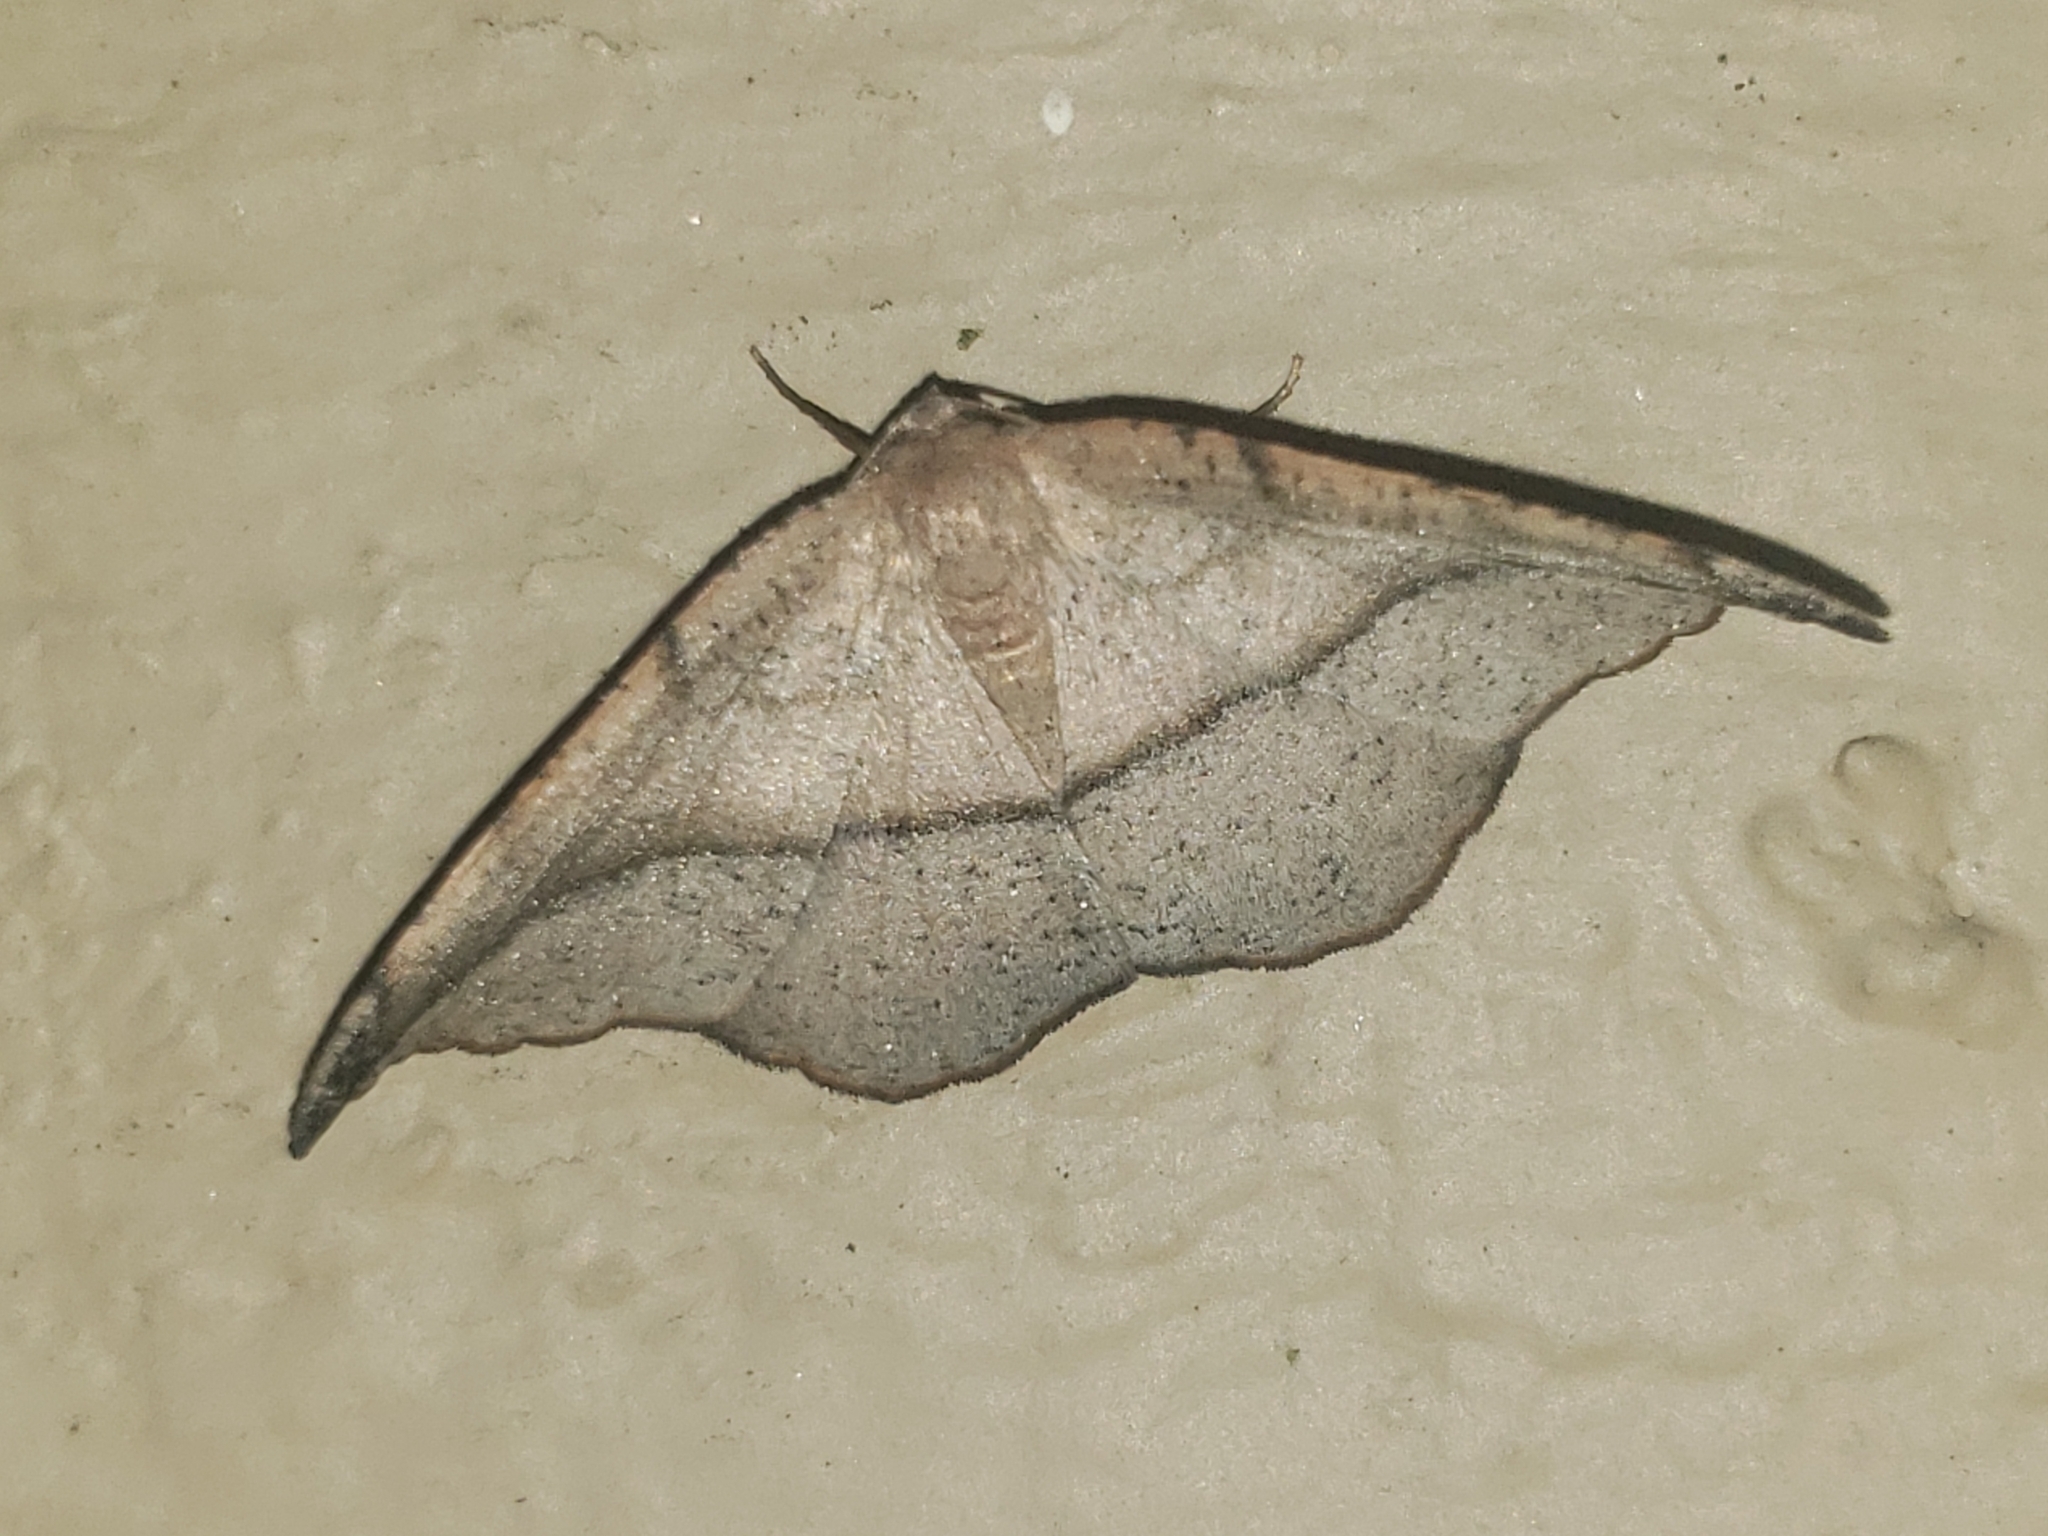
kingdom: Animalia
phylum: Arthropoda
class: Insecta
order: Lepidoptera
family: Geometridae
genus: Patalene
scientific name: Patalene olyzonaria
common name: Juniper geometer moth
